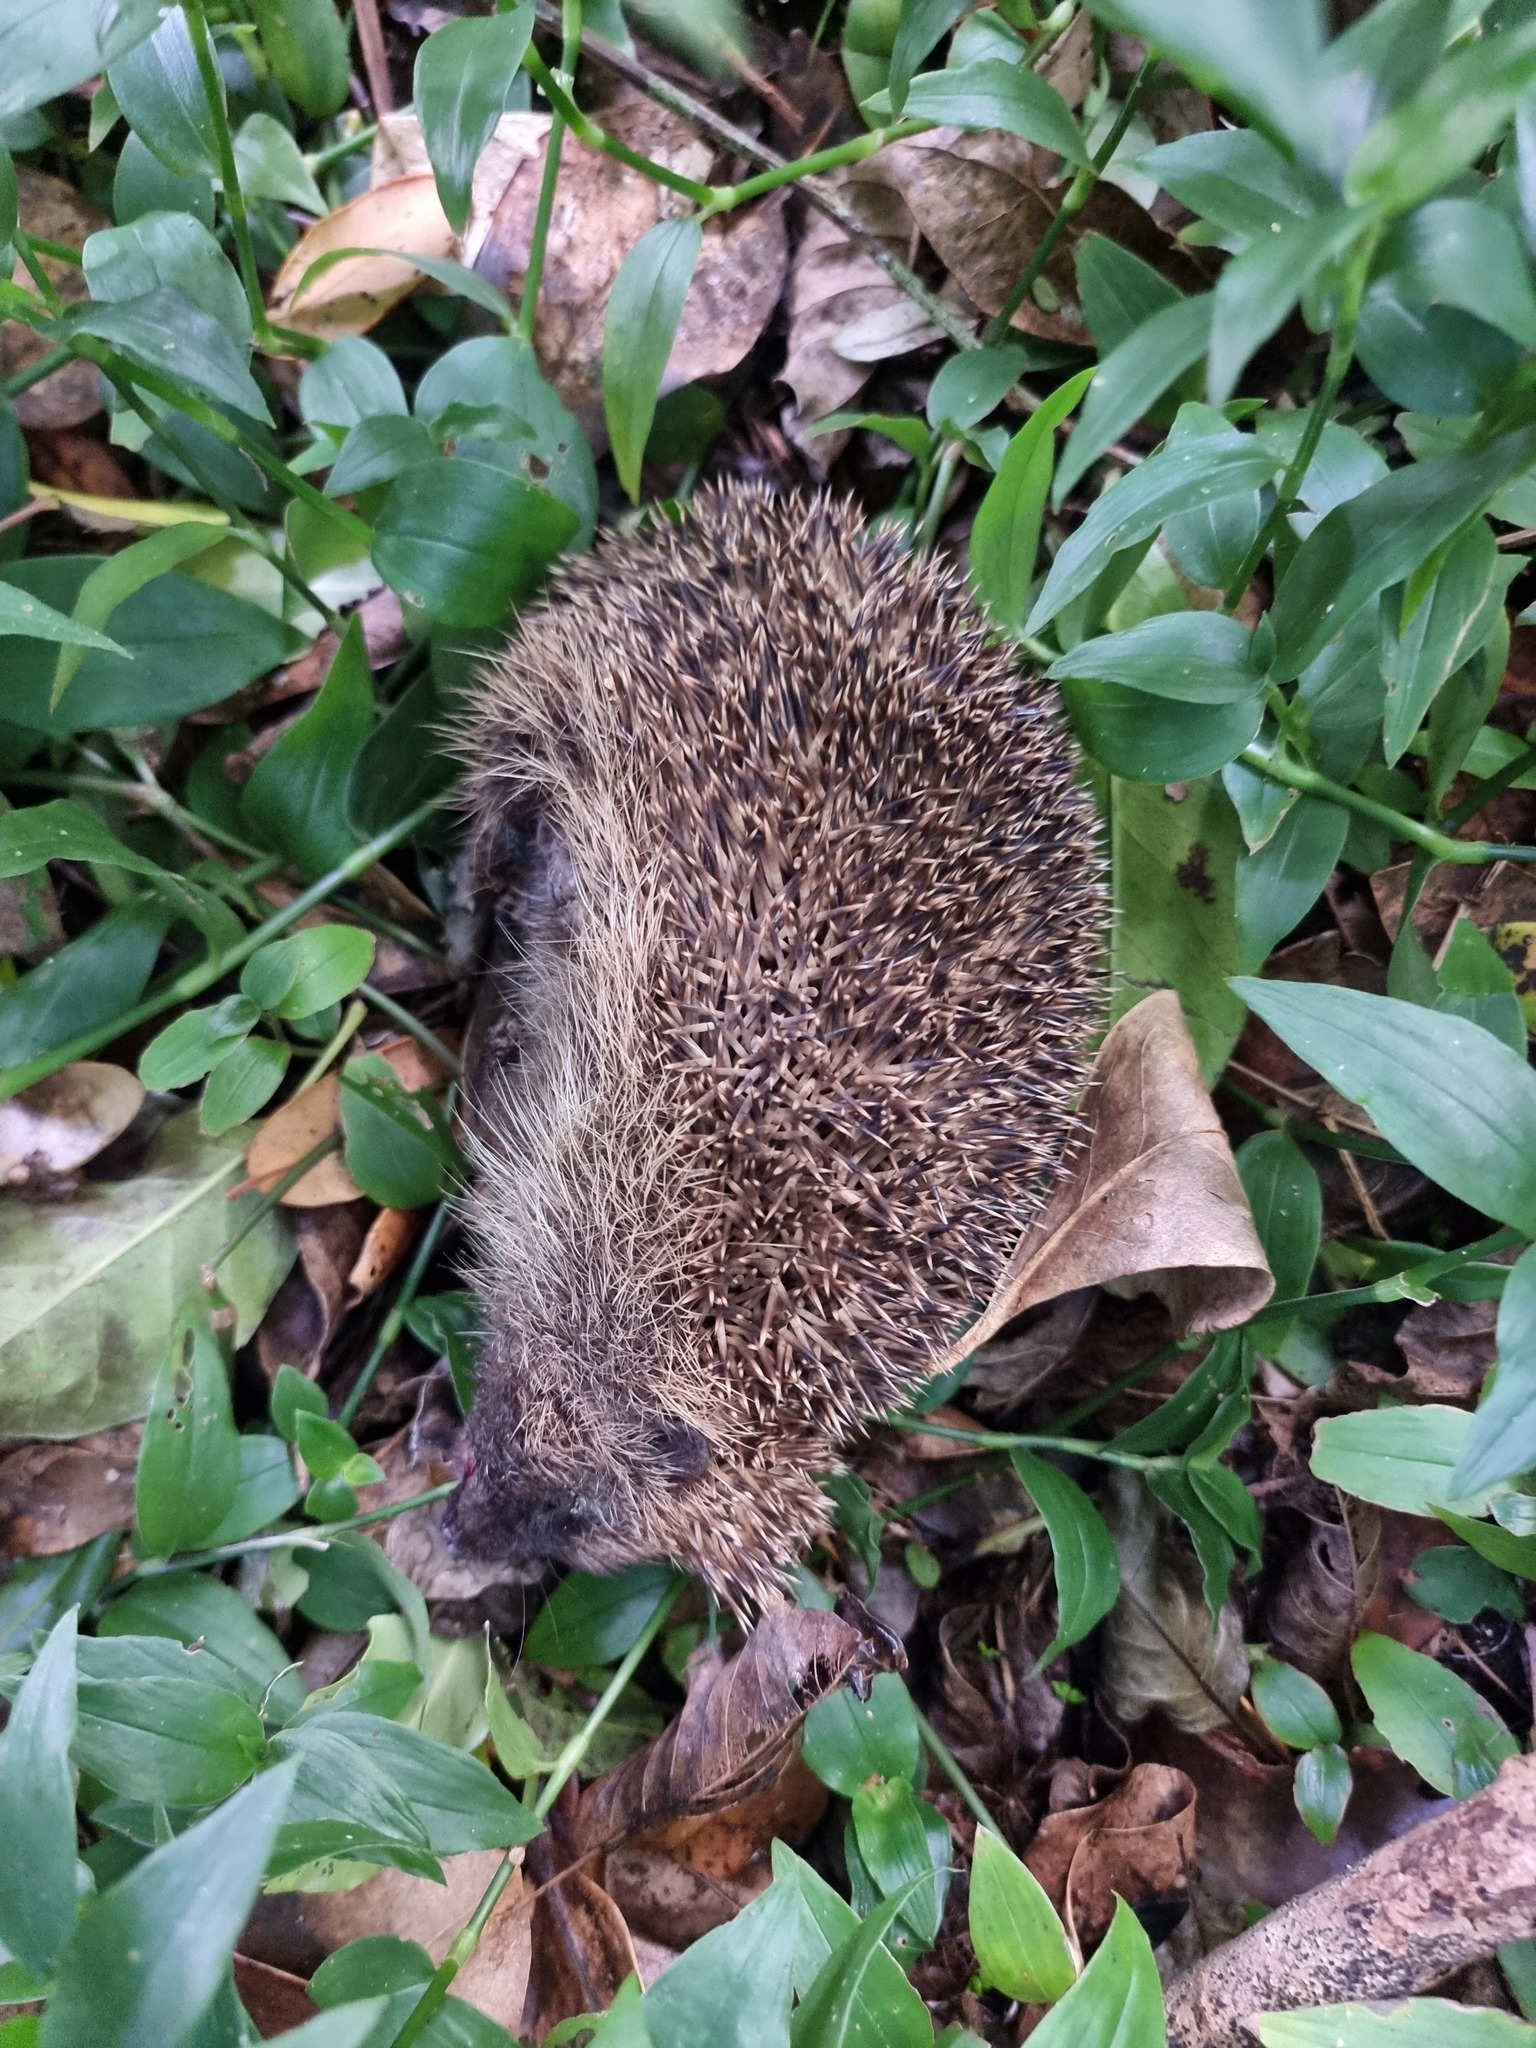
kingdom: Animalia
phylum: Chordata
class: Mammalia
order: Erinaceomorpha
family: Erinaceidae
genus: Erinaceus
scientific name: Erinaceus europaeus
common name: West european hedgehog
